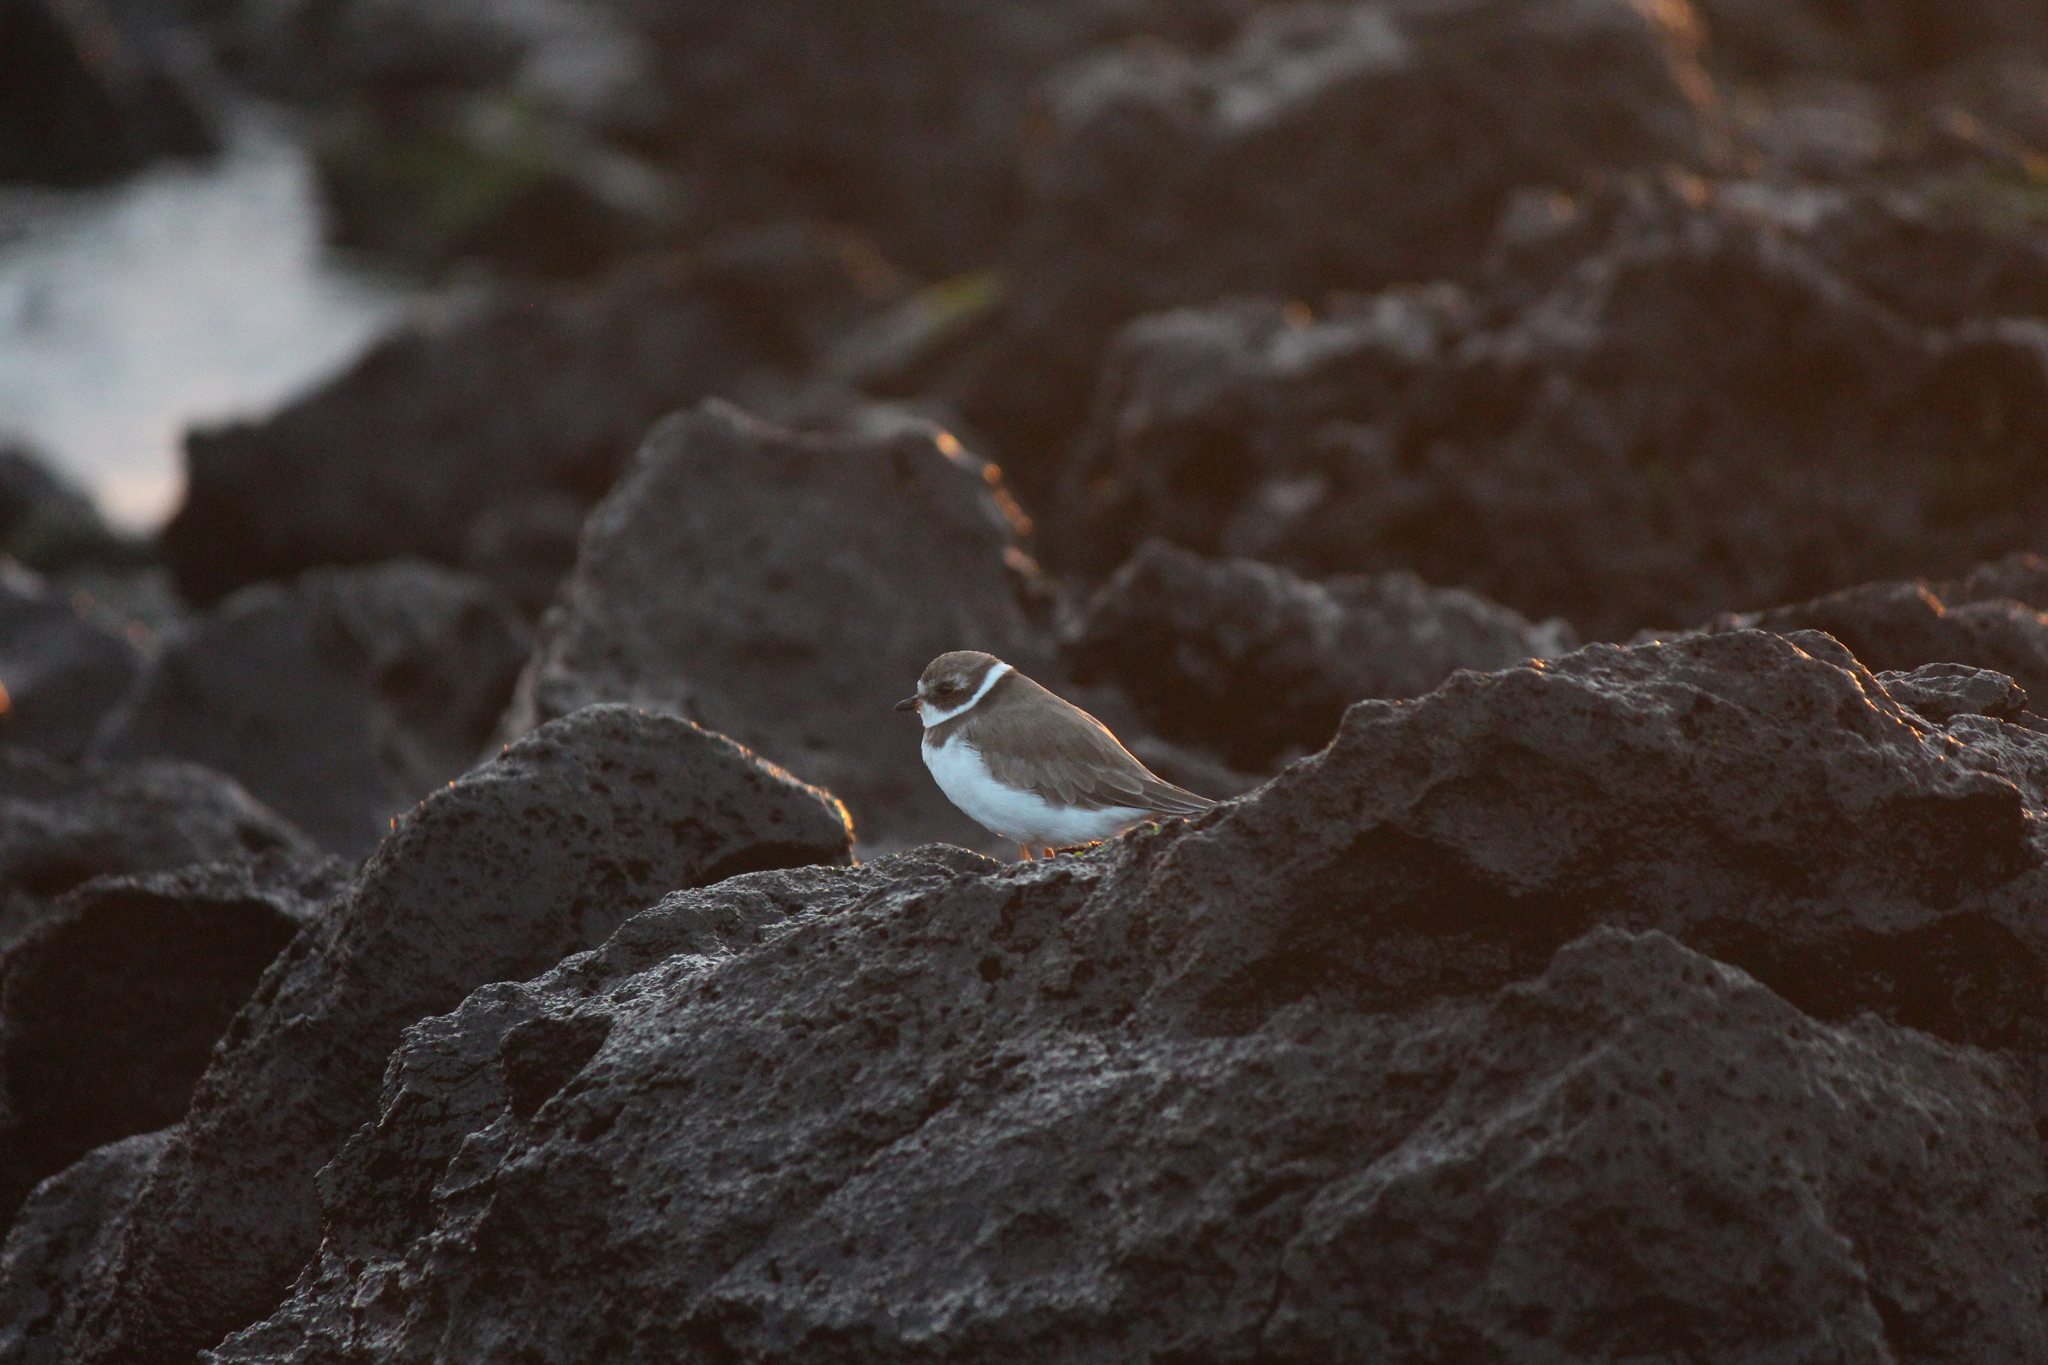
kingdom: Animalia
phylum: Chordata
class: Aves
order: Charadriiformes
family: Charadriidae
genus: Charadrius
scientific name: Charadrius semipalmatus
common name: Semipalmated plover
